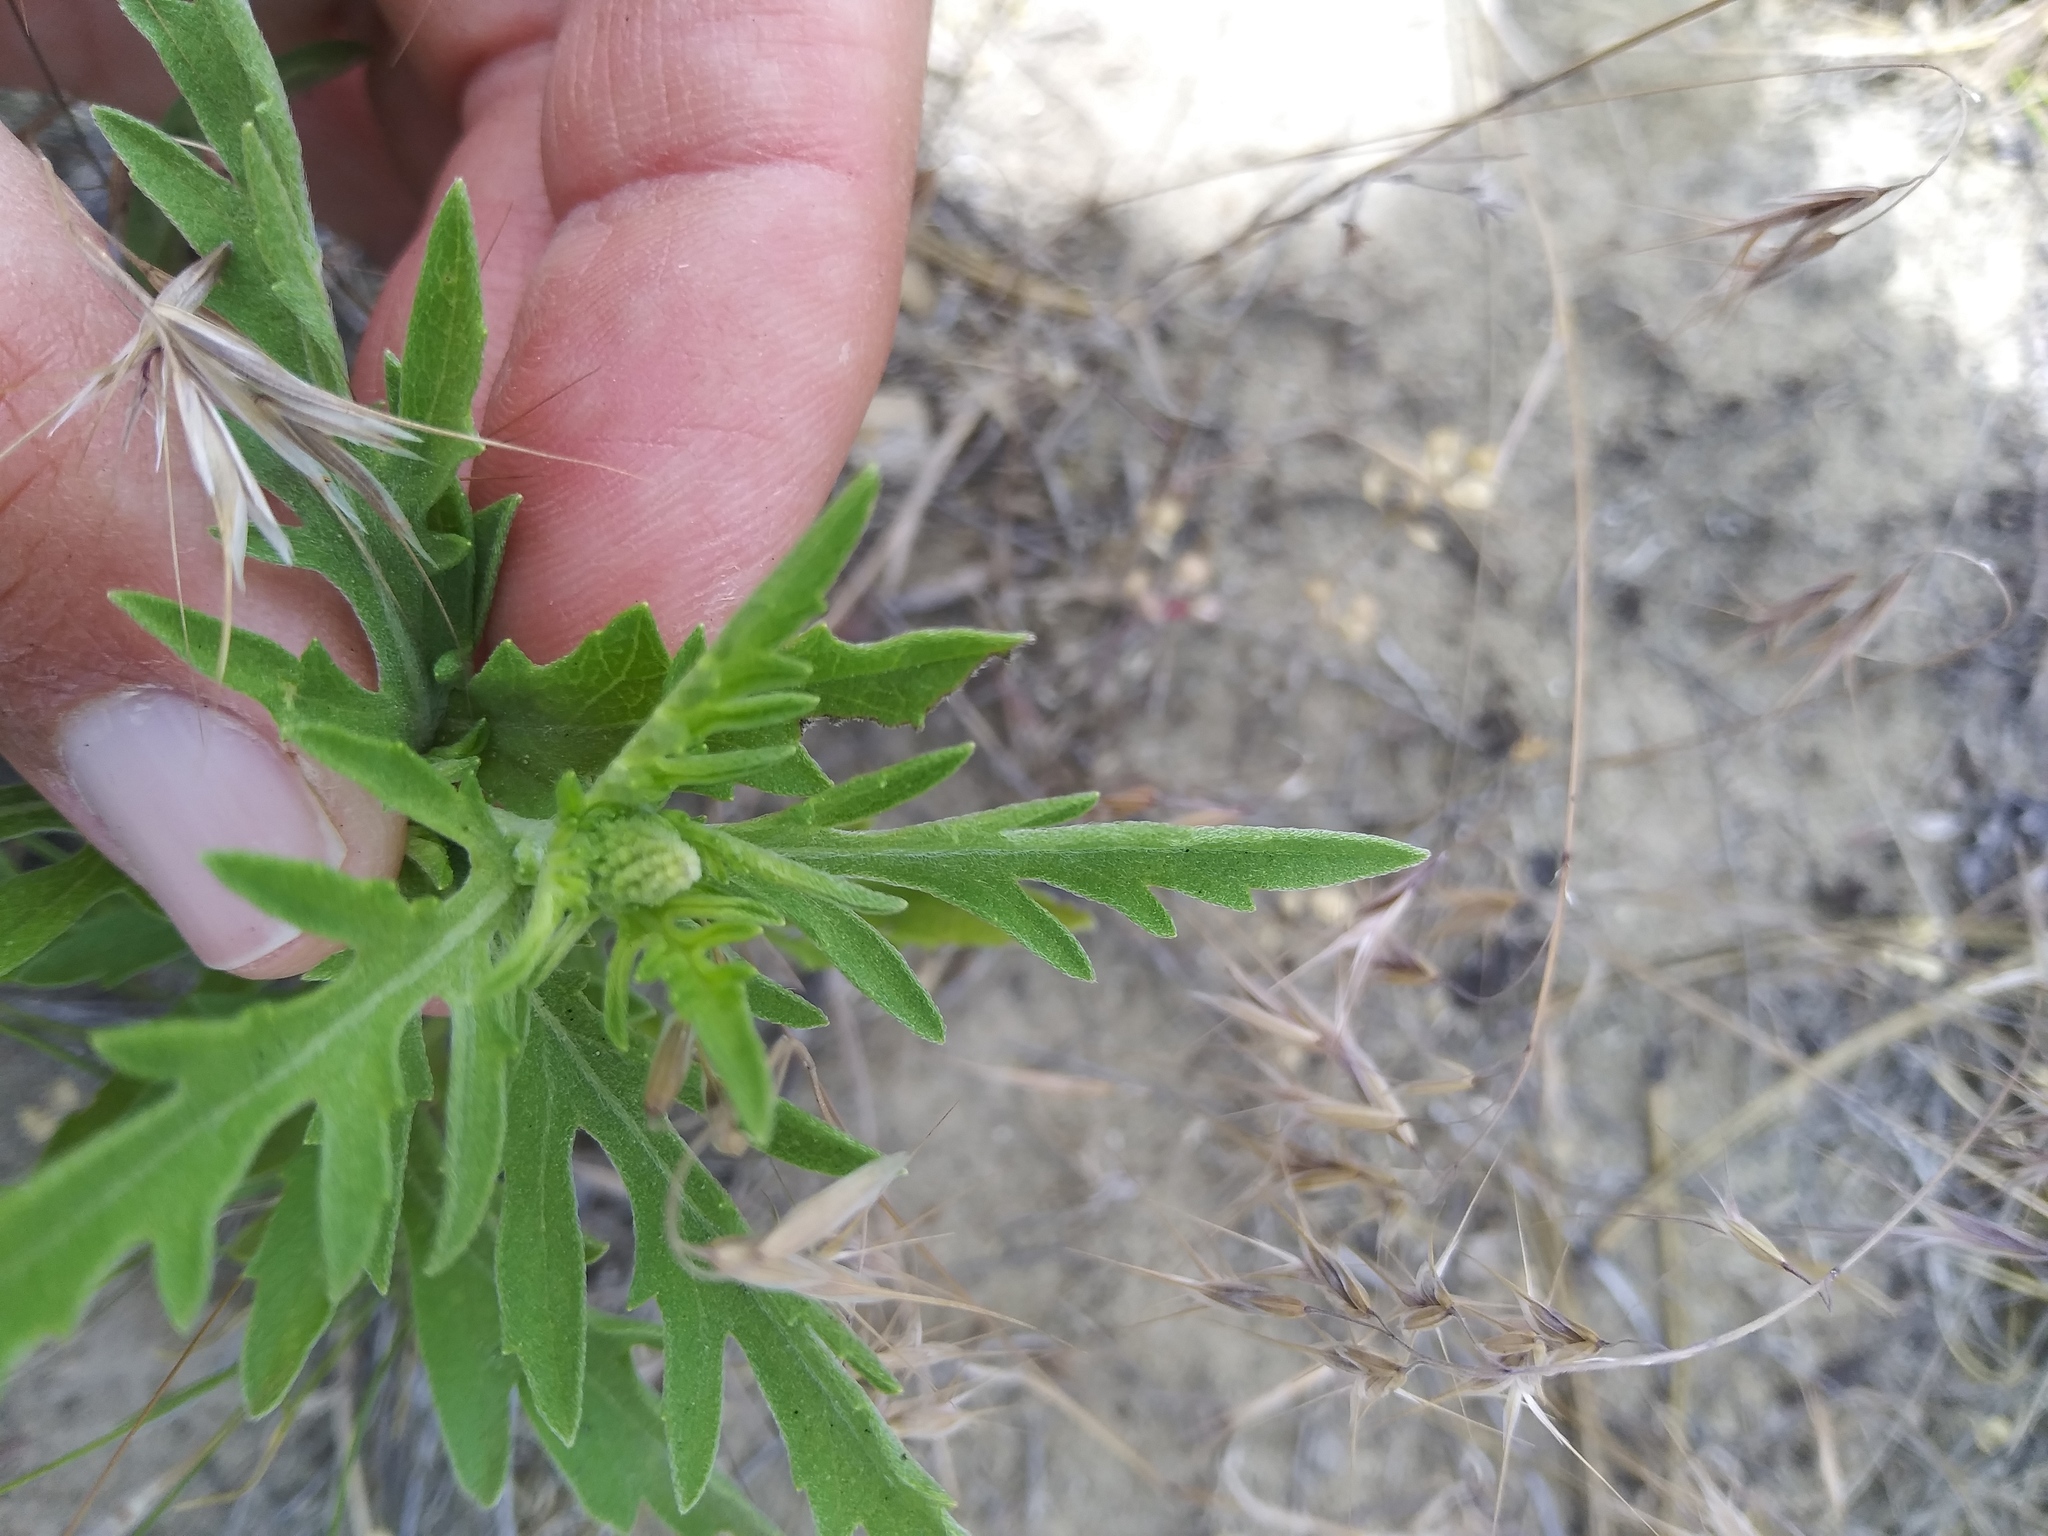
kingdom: Plantae
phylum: Tracheophyta
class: Magnoliopsida
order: Asterales
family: Asteraceae
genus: Ambrosia
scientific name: Ambrosia psilostachya
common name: Perennial ragweed
